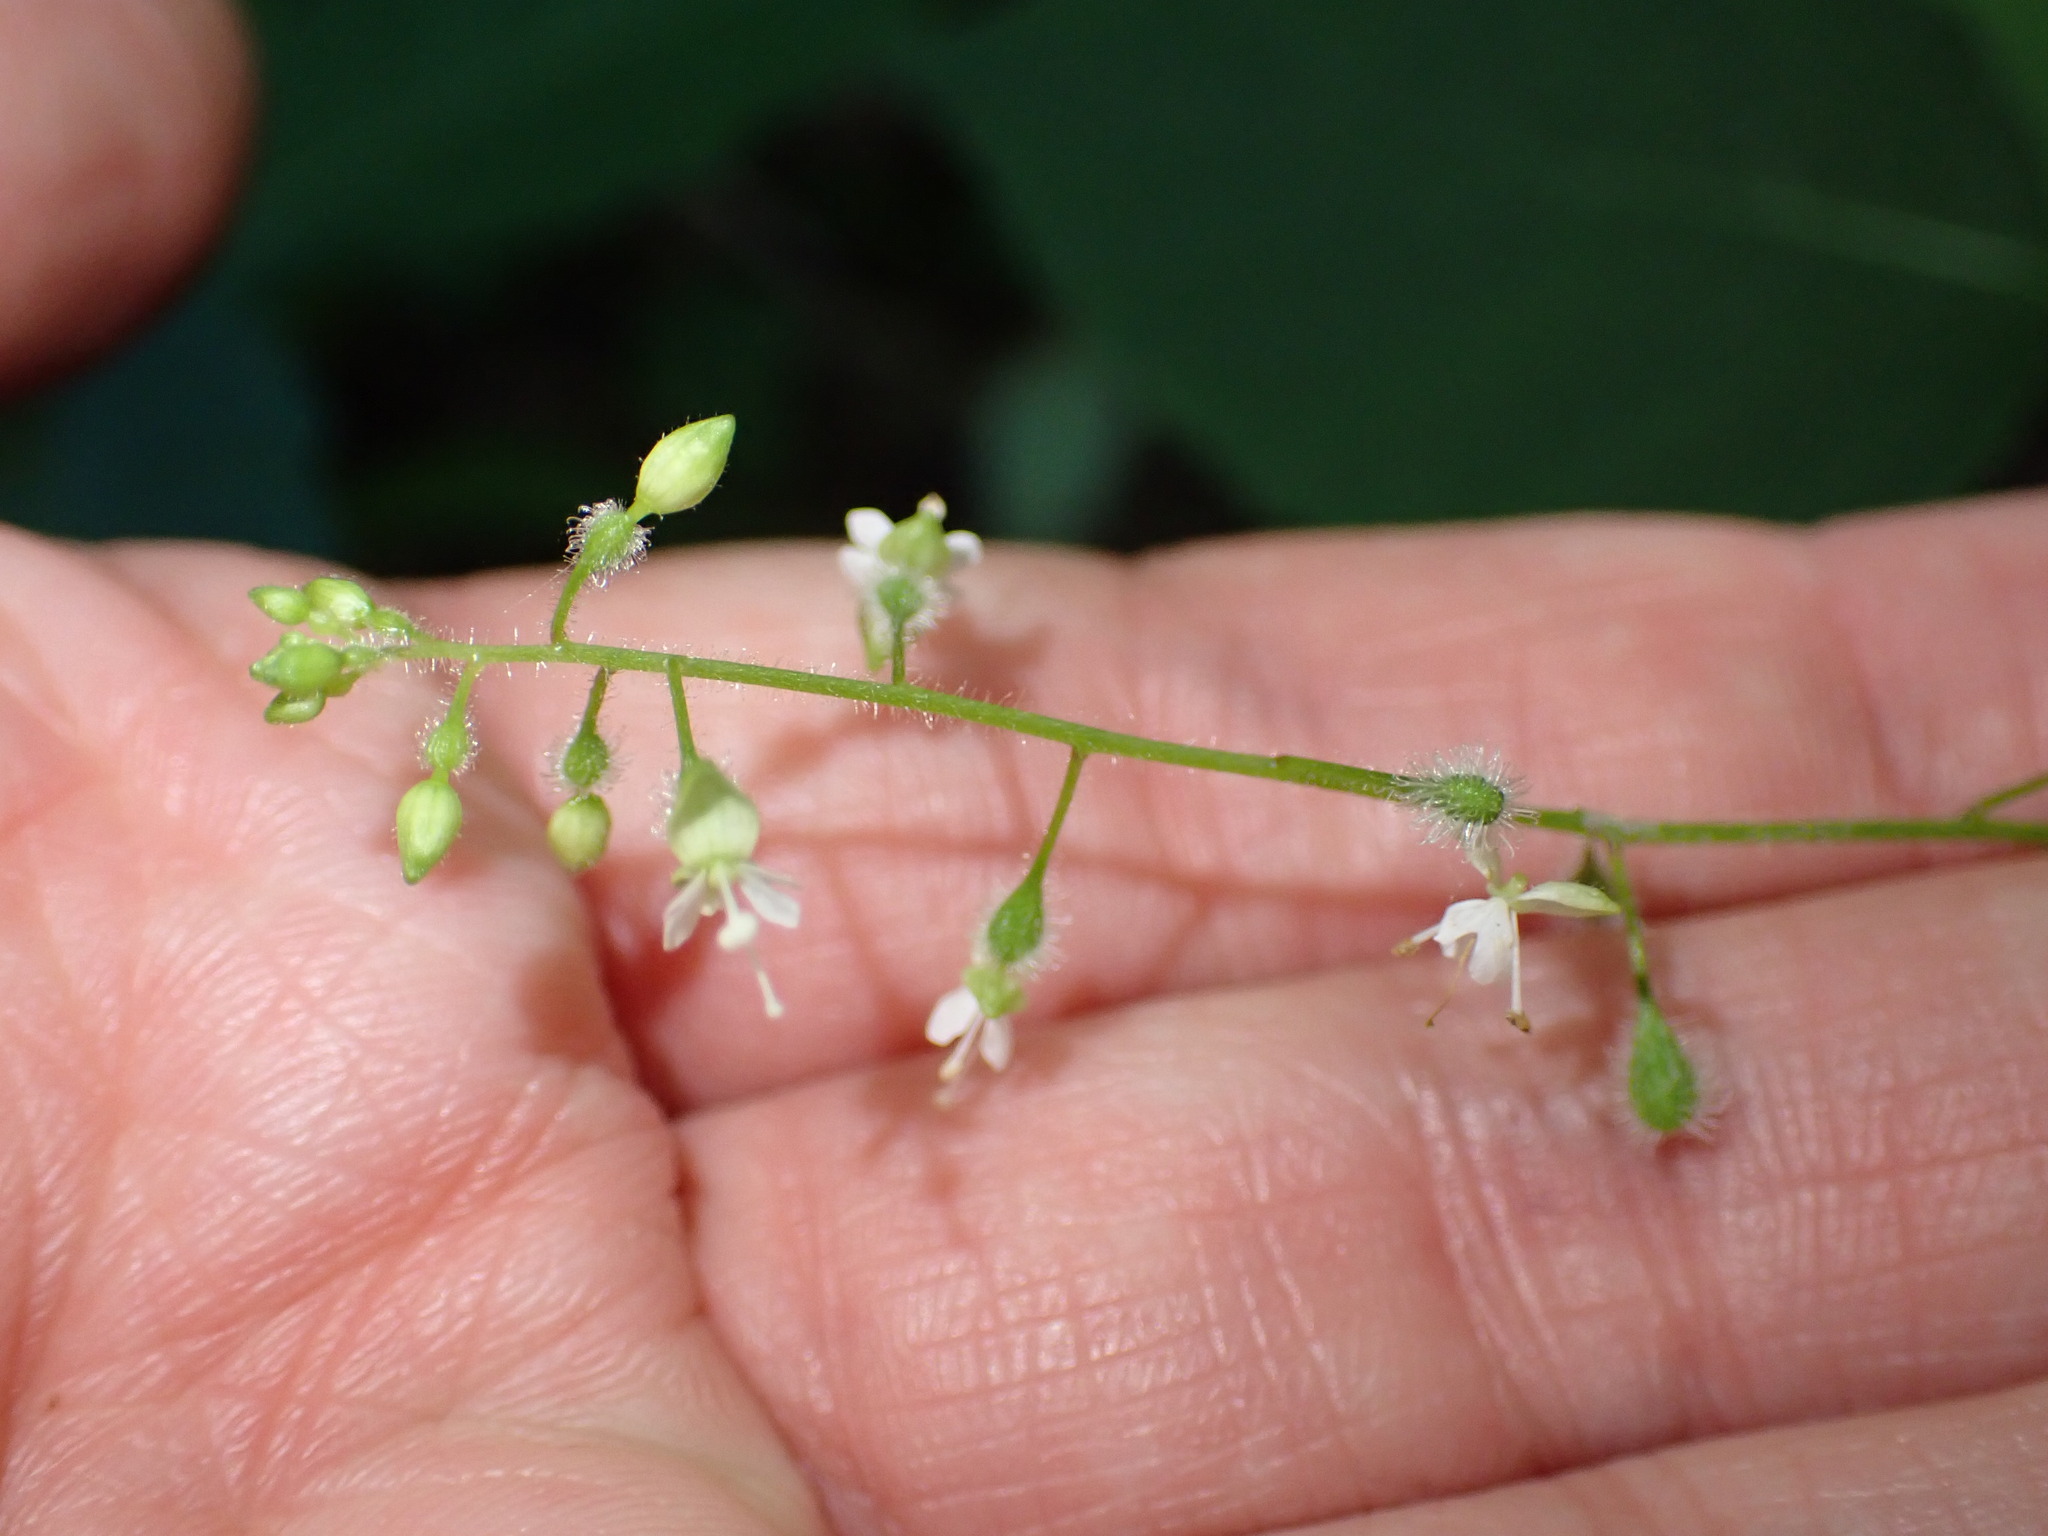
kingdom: Plantae
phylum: Tracheophyta
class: Magnoliopsida
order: Myrtales
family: Onagraceae
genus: Circaea
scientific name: Circaea canadensis
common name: Broad-leaved enchanter's nightshade
